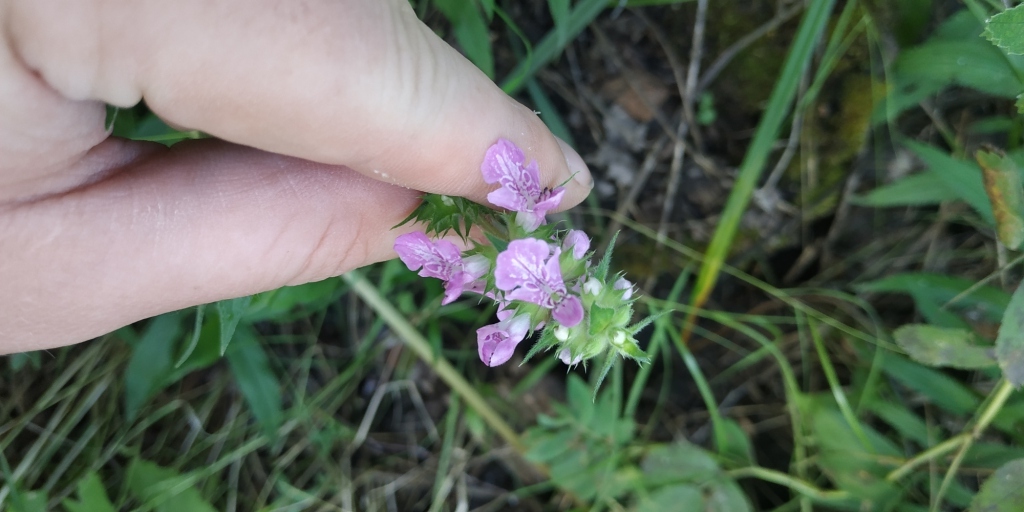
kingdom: Plantae
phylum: Tracheophyta
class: Magnoliopsida
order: Lamiales
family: Lamiaceae
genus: Stachys
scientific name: Stachys palustris
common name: Marsh woundwort
